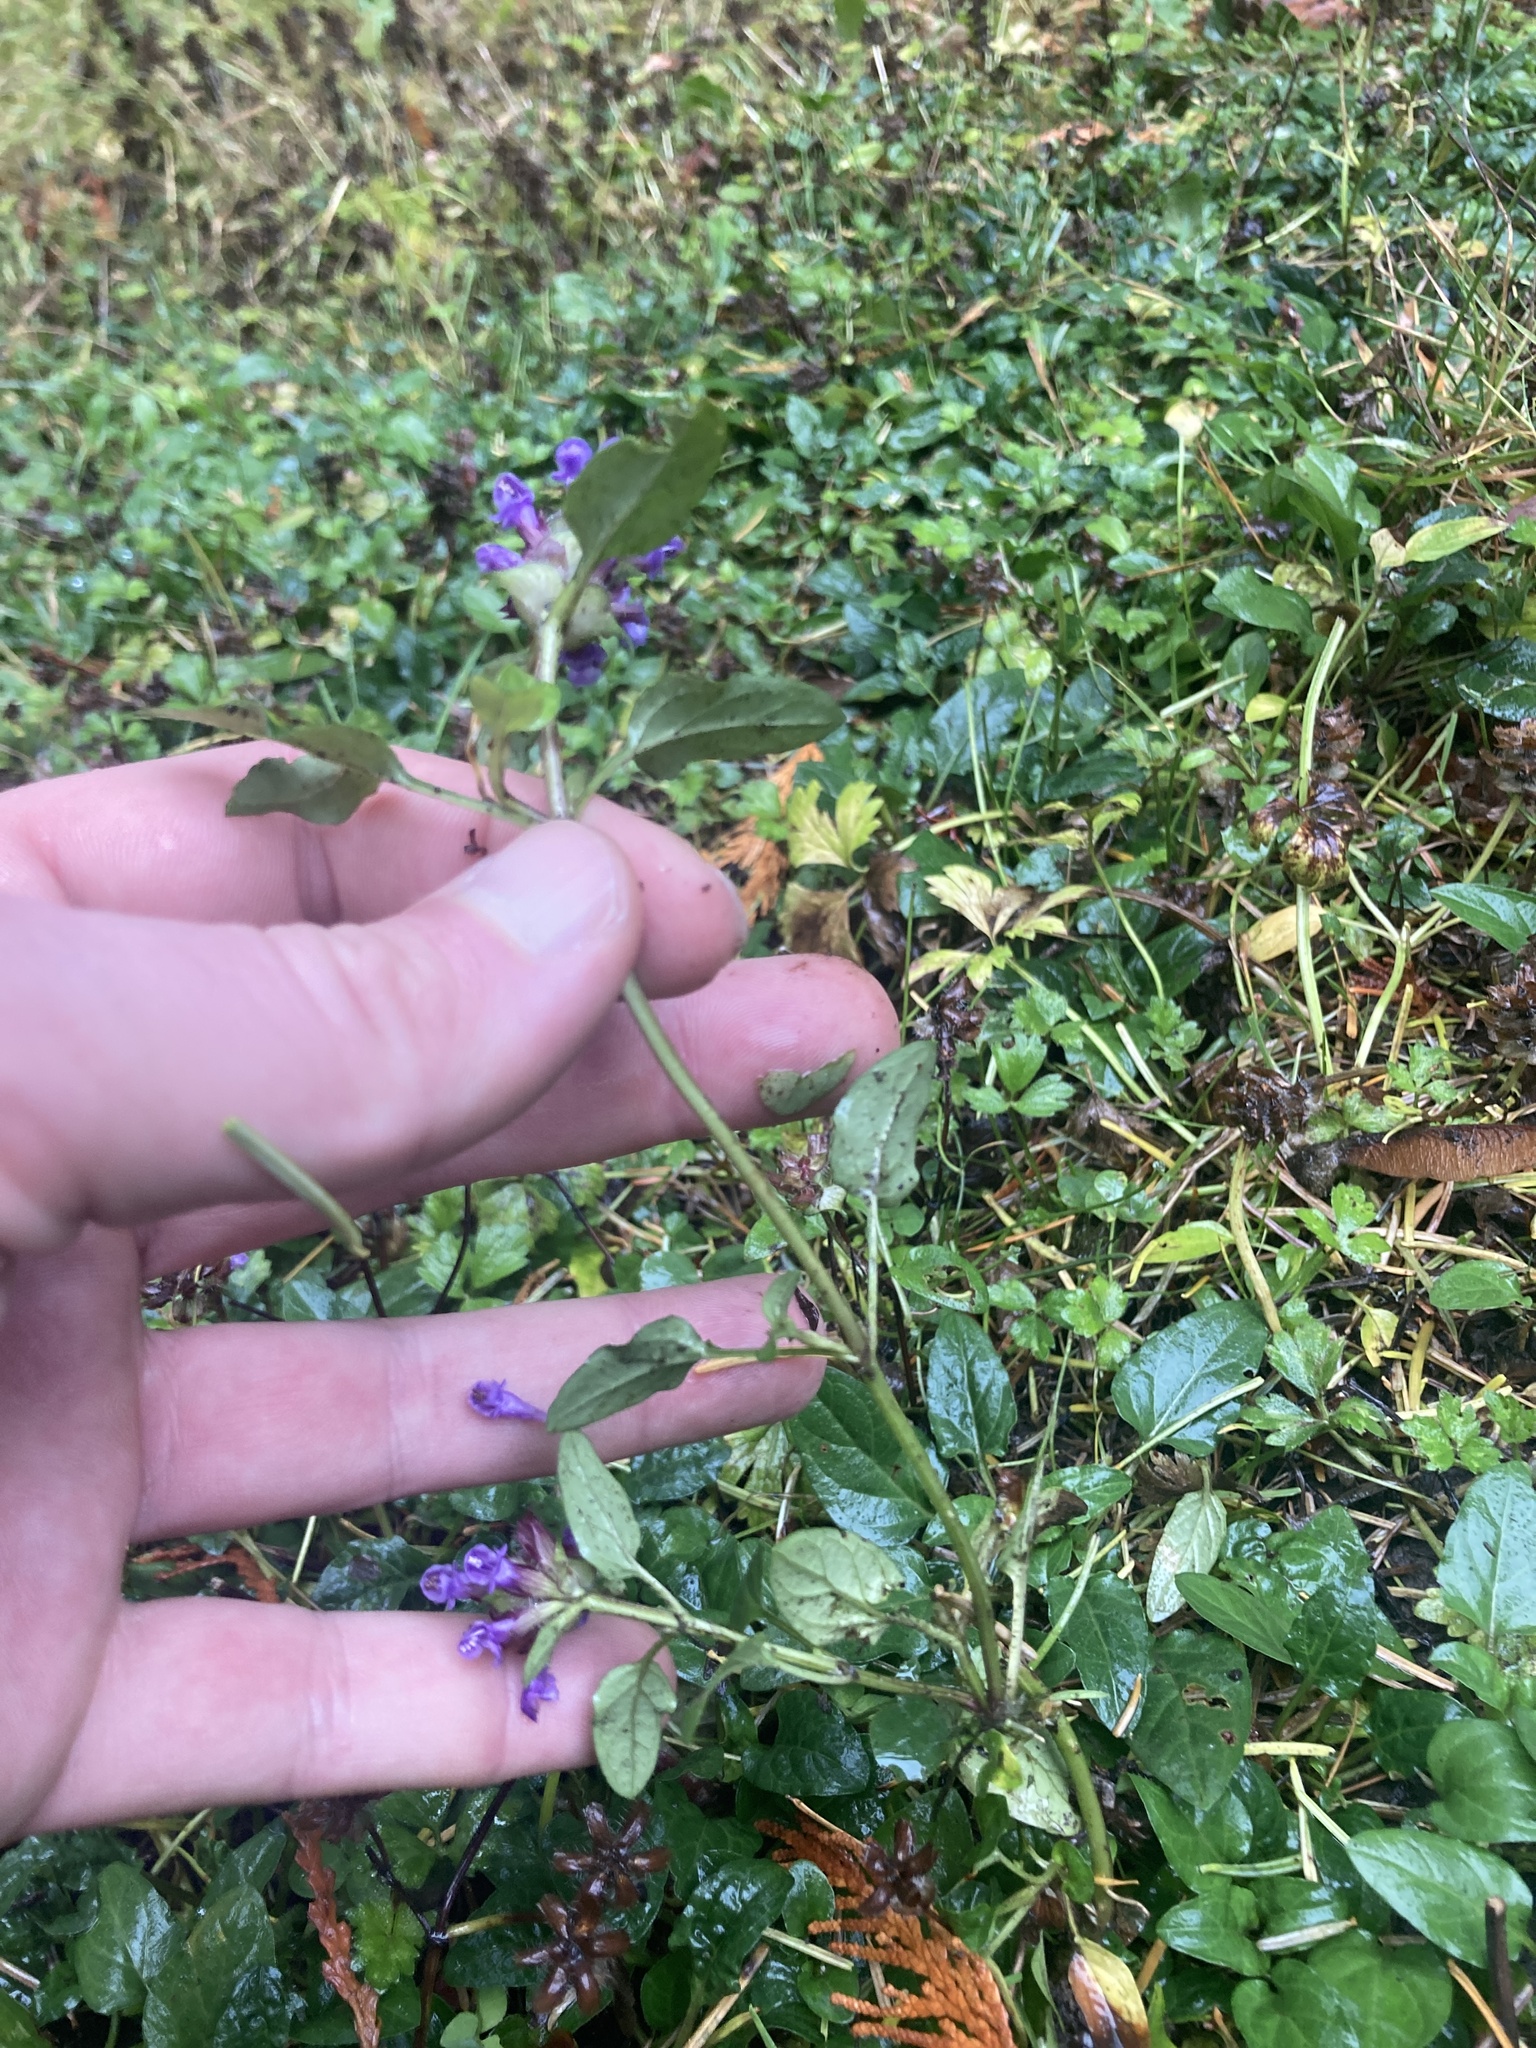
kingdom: Plantae
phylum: Tracheophyta
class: Magnoliopsida
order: Lamiales
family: Lamiaceae
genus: Prunella
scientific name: Prunella vulgaris
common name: Heal-all
